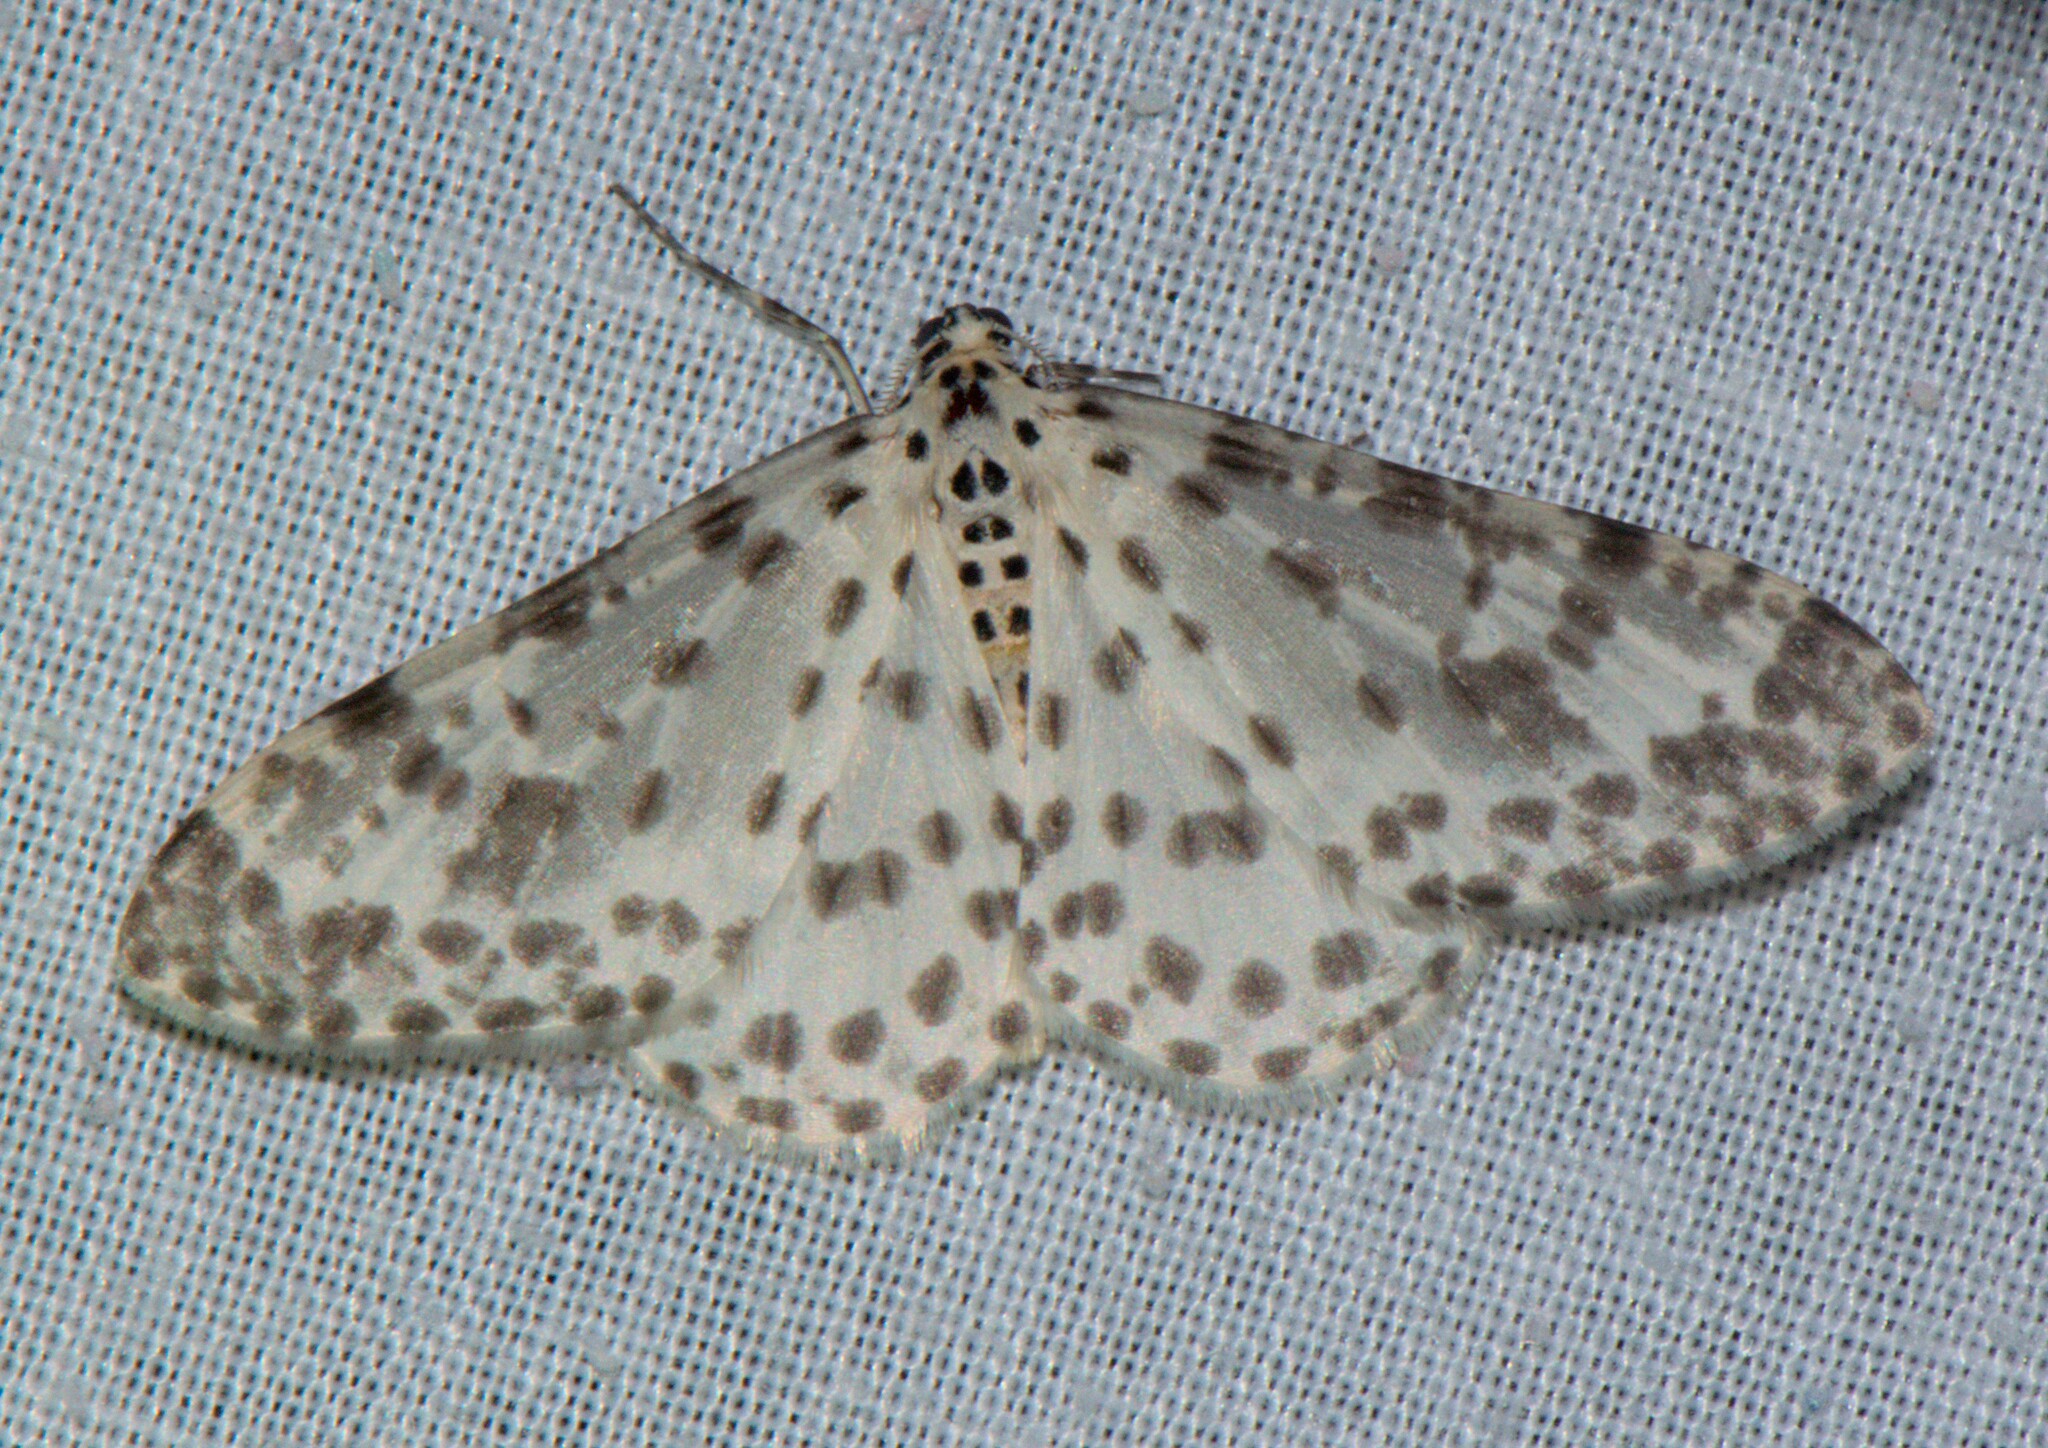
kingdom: Animalia
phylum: Arthropoda
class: Insecta
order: Lepidoptera
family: Geometridae
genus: Xenoplia
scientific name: Xenoplia maculata
